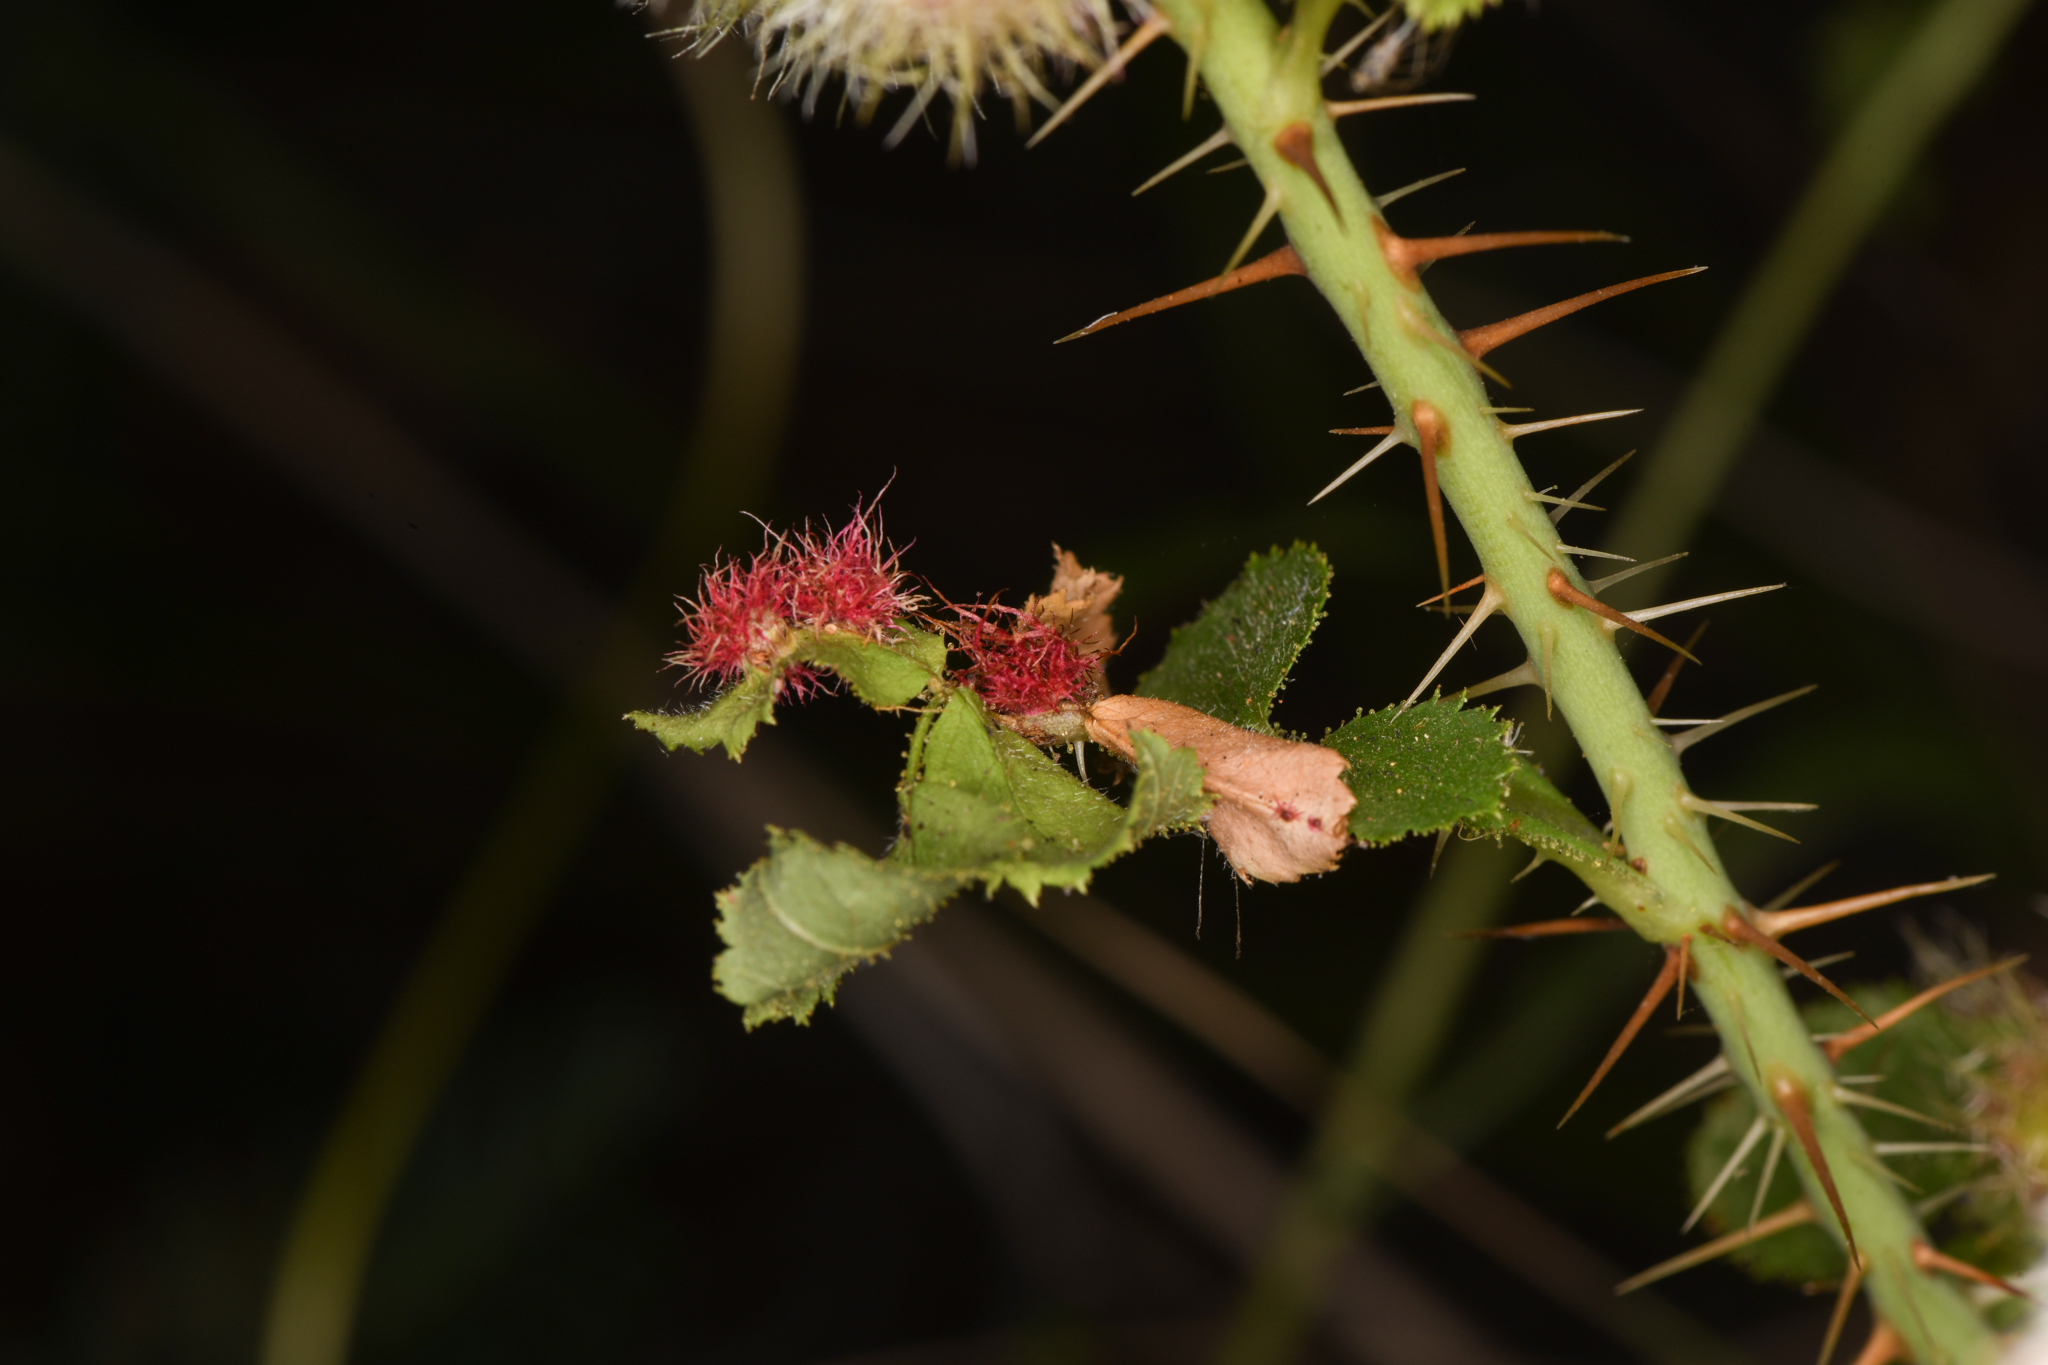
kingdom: Animalia
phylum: Arthropoda
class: Insecta
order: Hymenoptera
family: Cynipidae
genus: Diplolepis
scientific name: Diplolepis rosae
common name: Bedeguar gall
